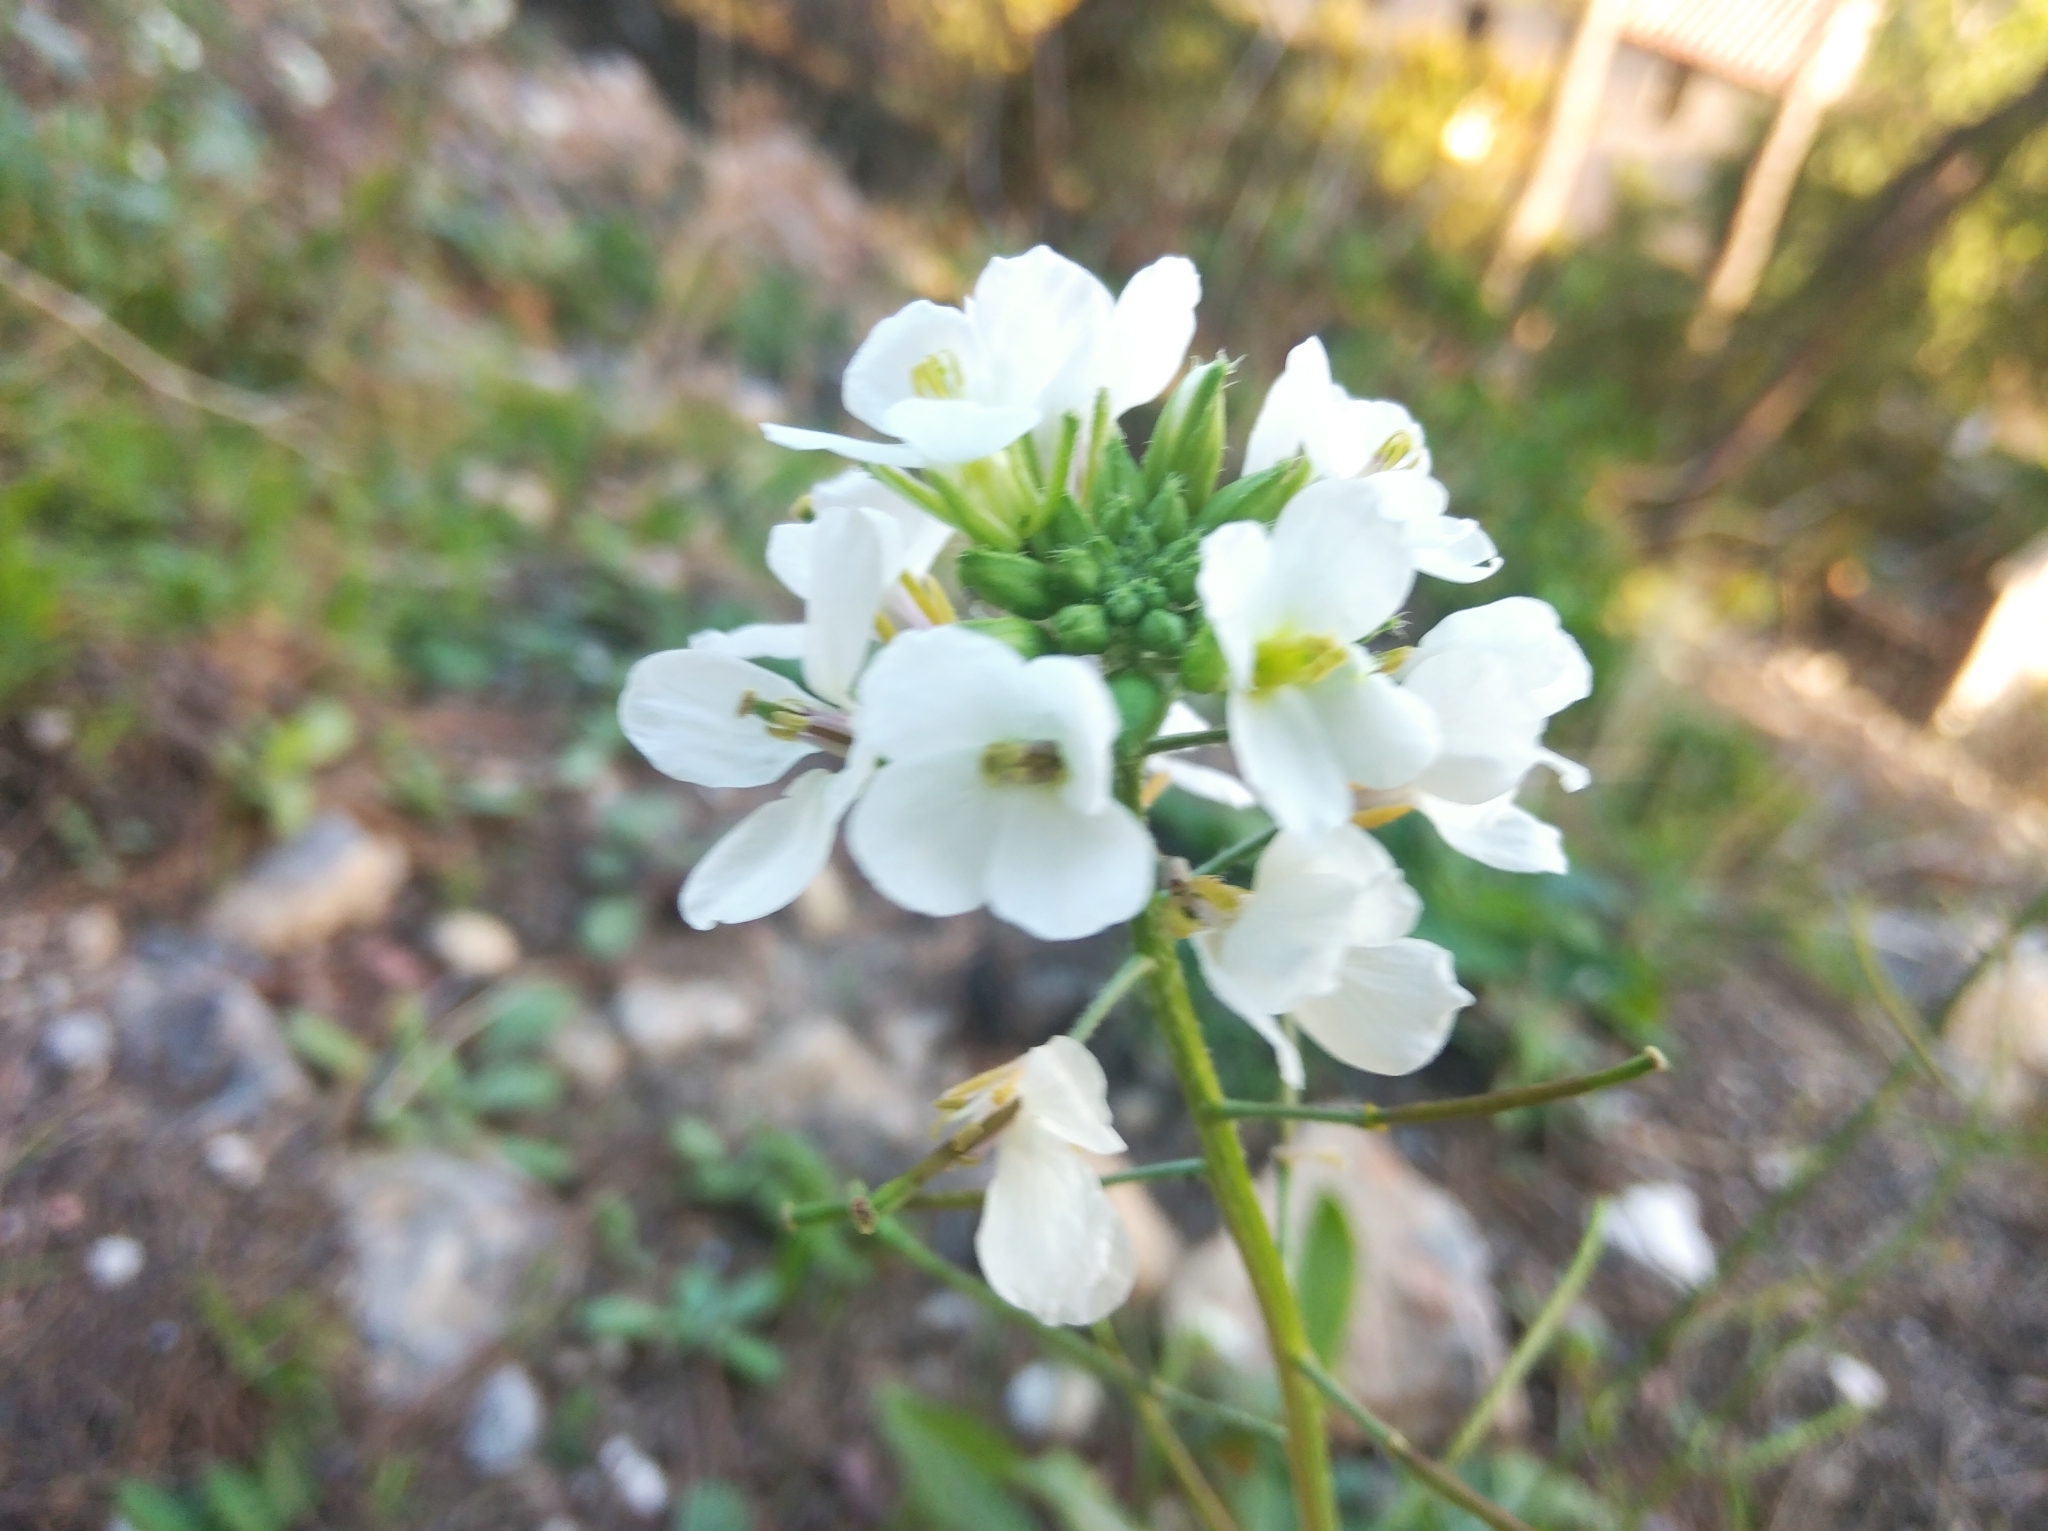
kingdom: Plantae
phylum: Tracheophyta
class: Magnoliopsida
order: Brassicales
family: Brassicaceae
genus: Diplotaxis
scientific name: Diplotaxis erucoides
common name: White rocket
